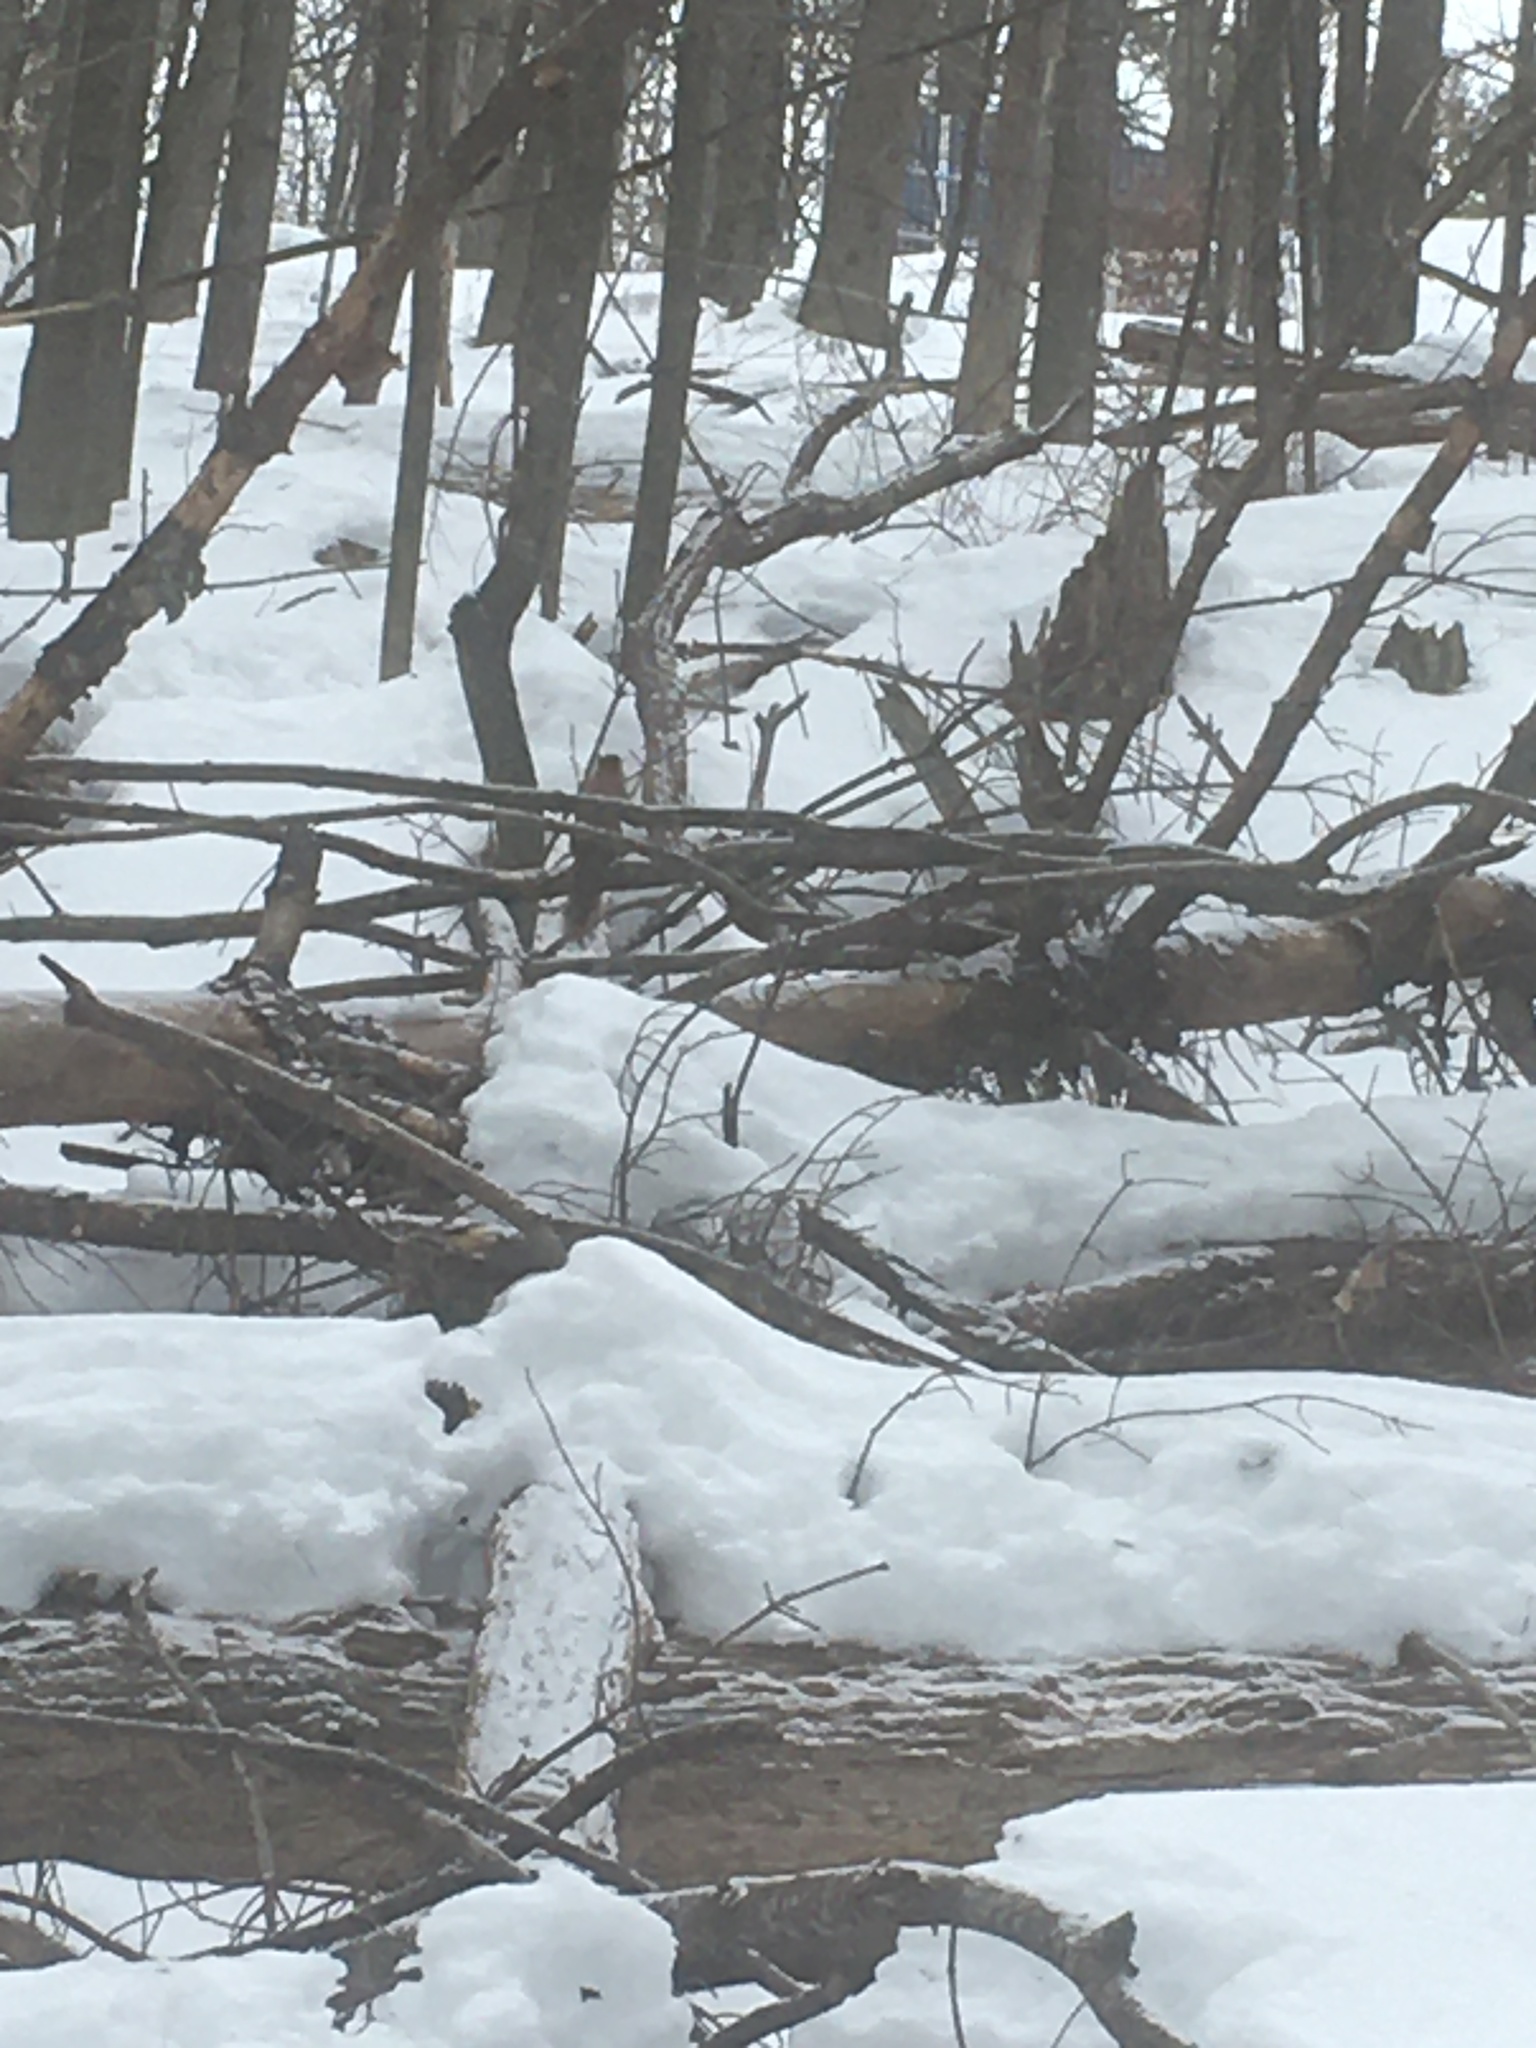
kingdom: Animalia
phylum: Chordata
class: Mammalia
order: Rodentia
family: Sciuridae
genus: Tamiasciurus
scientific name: Tamiasciurus hudsonicus
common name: Red squirrel
